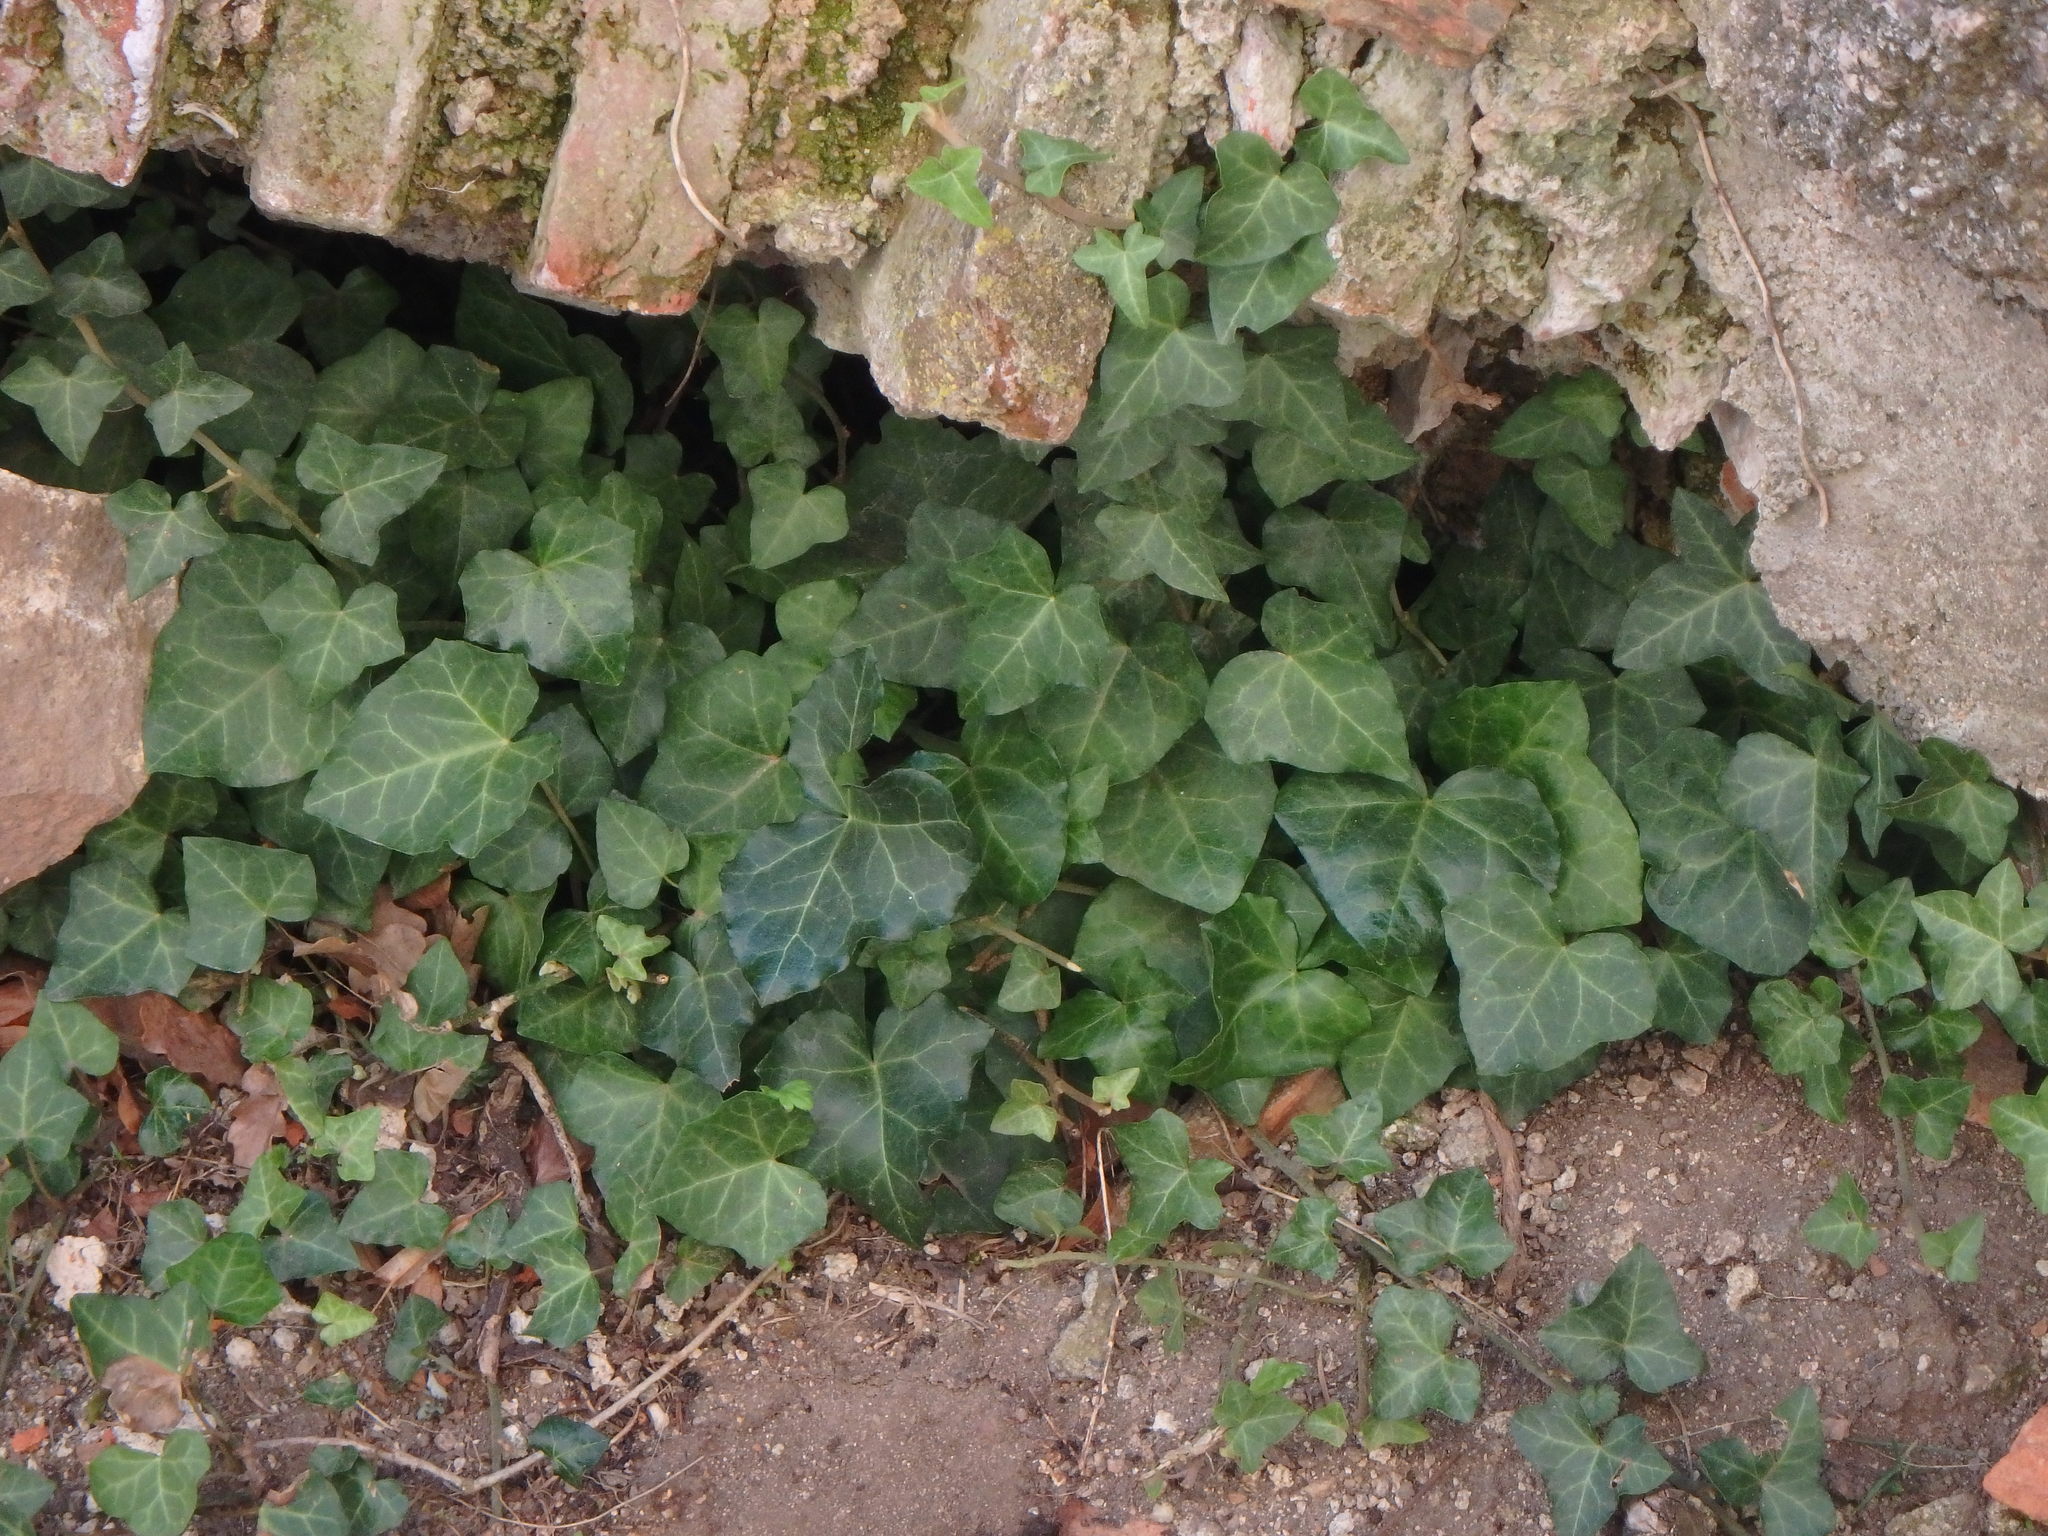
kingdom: Plantae
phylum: Tracheophyta
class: Magnoliopsida
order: Apiales
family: Araliaceae
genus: Hedera
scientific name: Hedera helix
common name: Ivy
